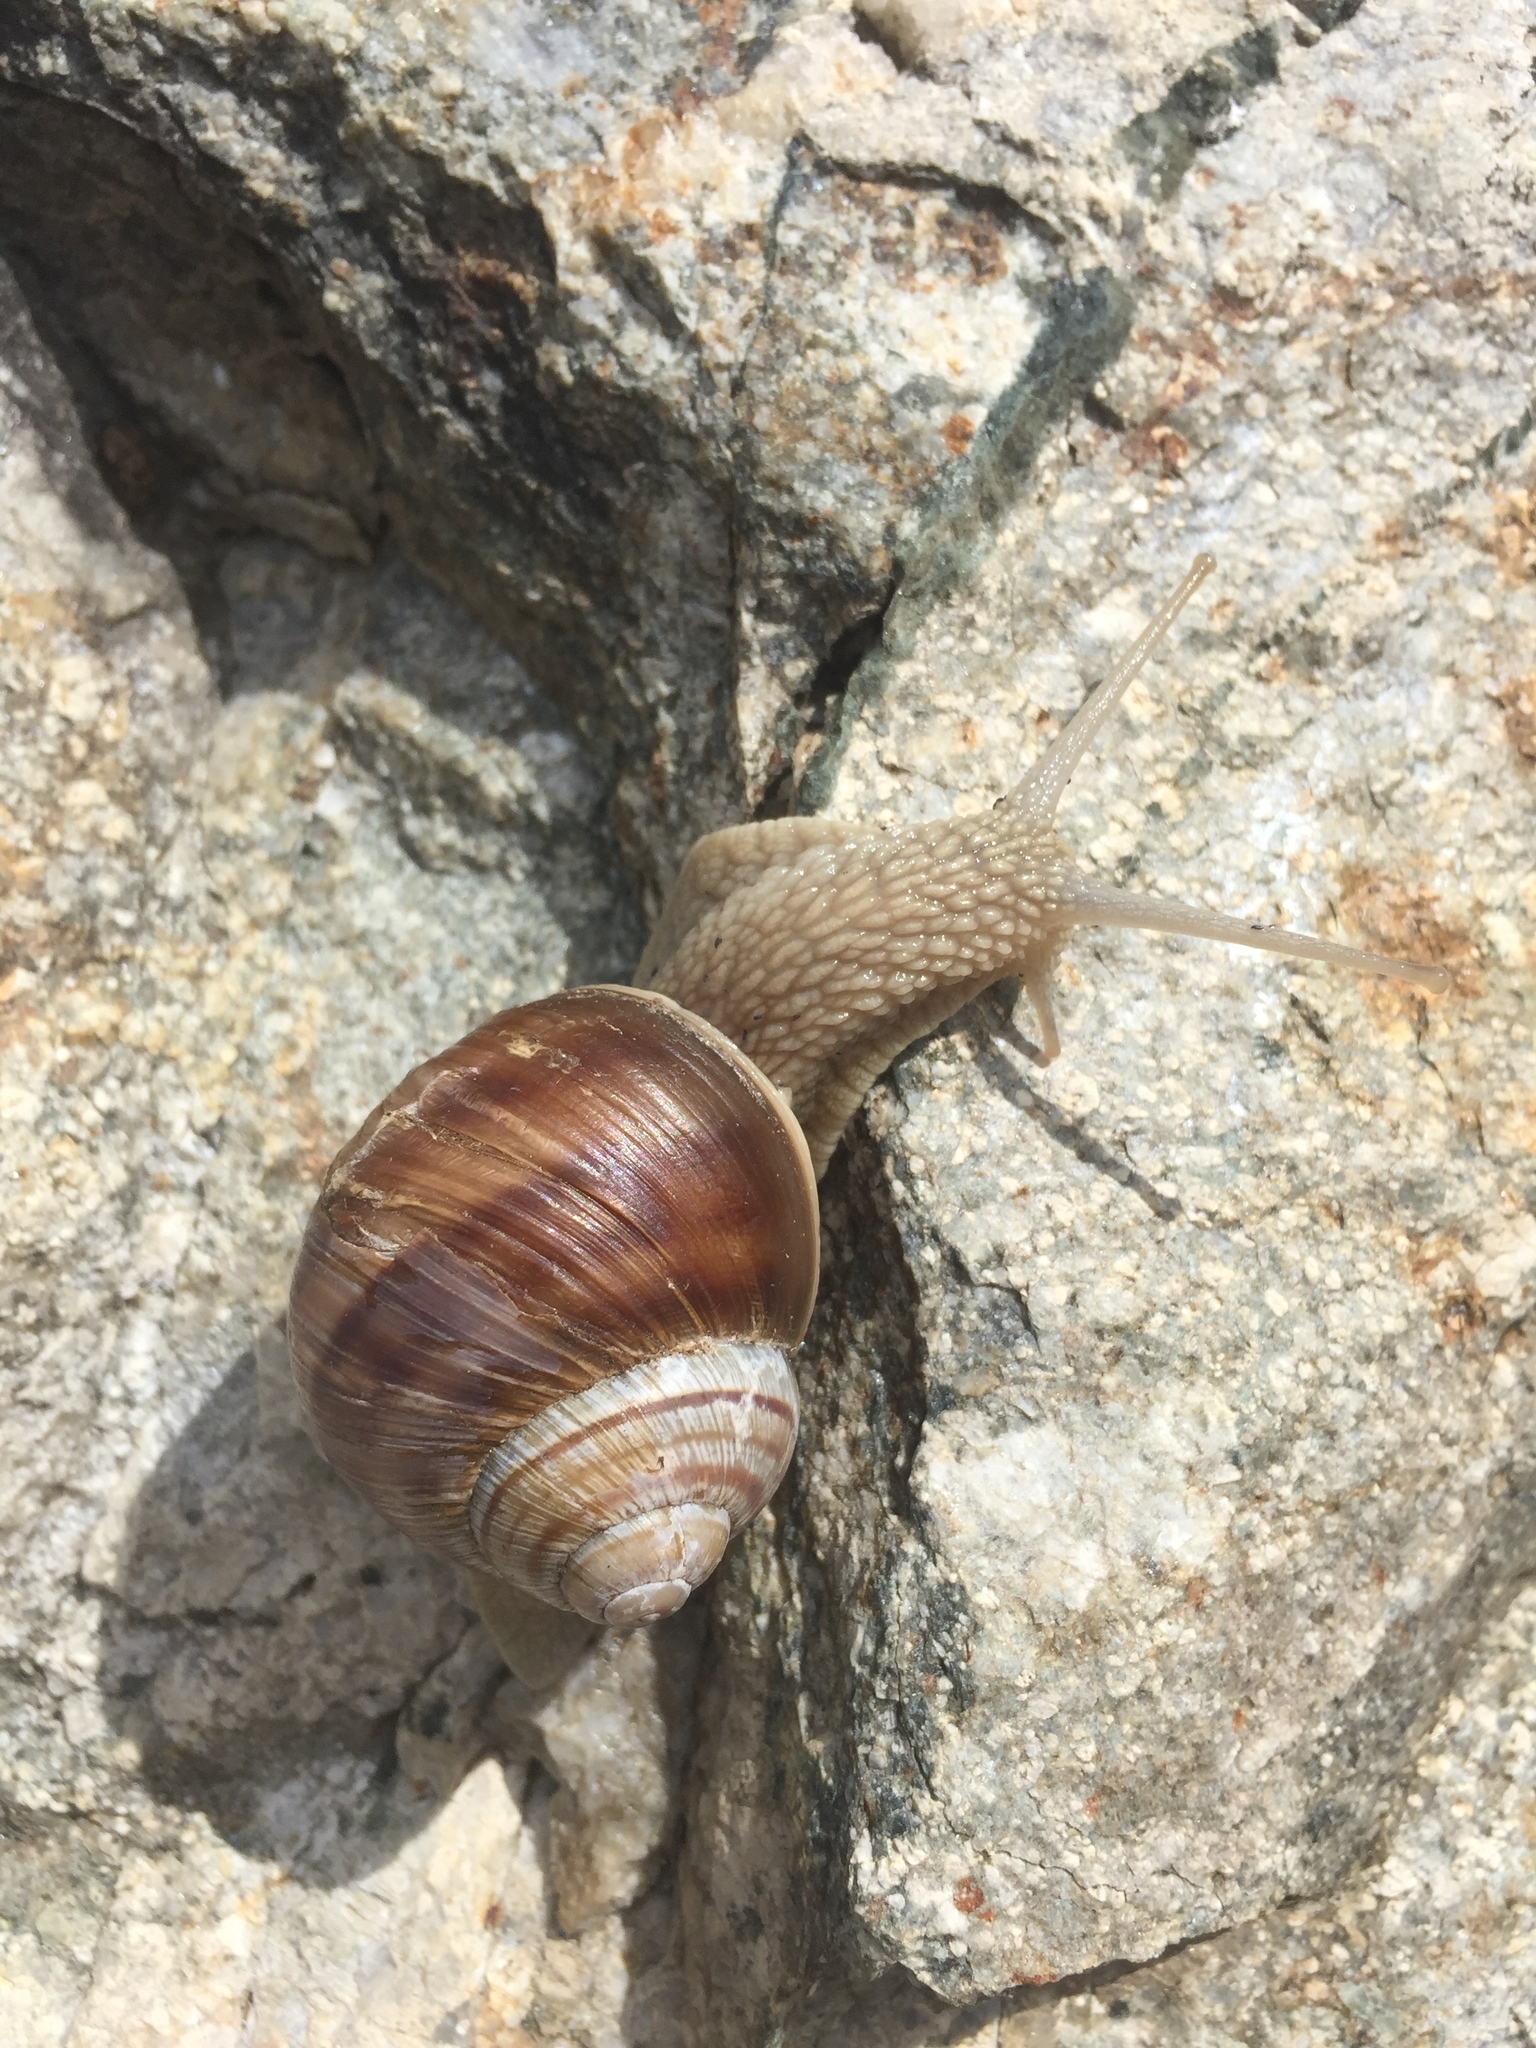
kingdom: Animalia
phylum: Mollusca
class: Gastropoda
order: Stylommatophora
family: Helicidae
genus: Helix
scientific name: Helix pomatia
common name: Roman snail
